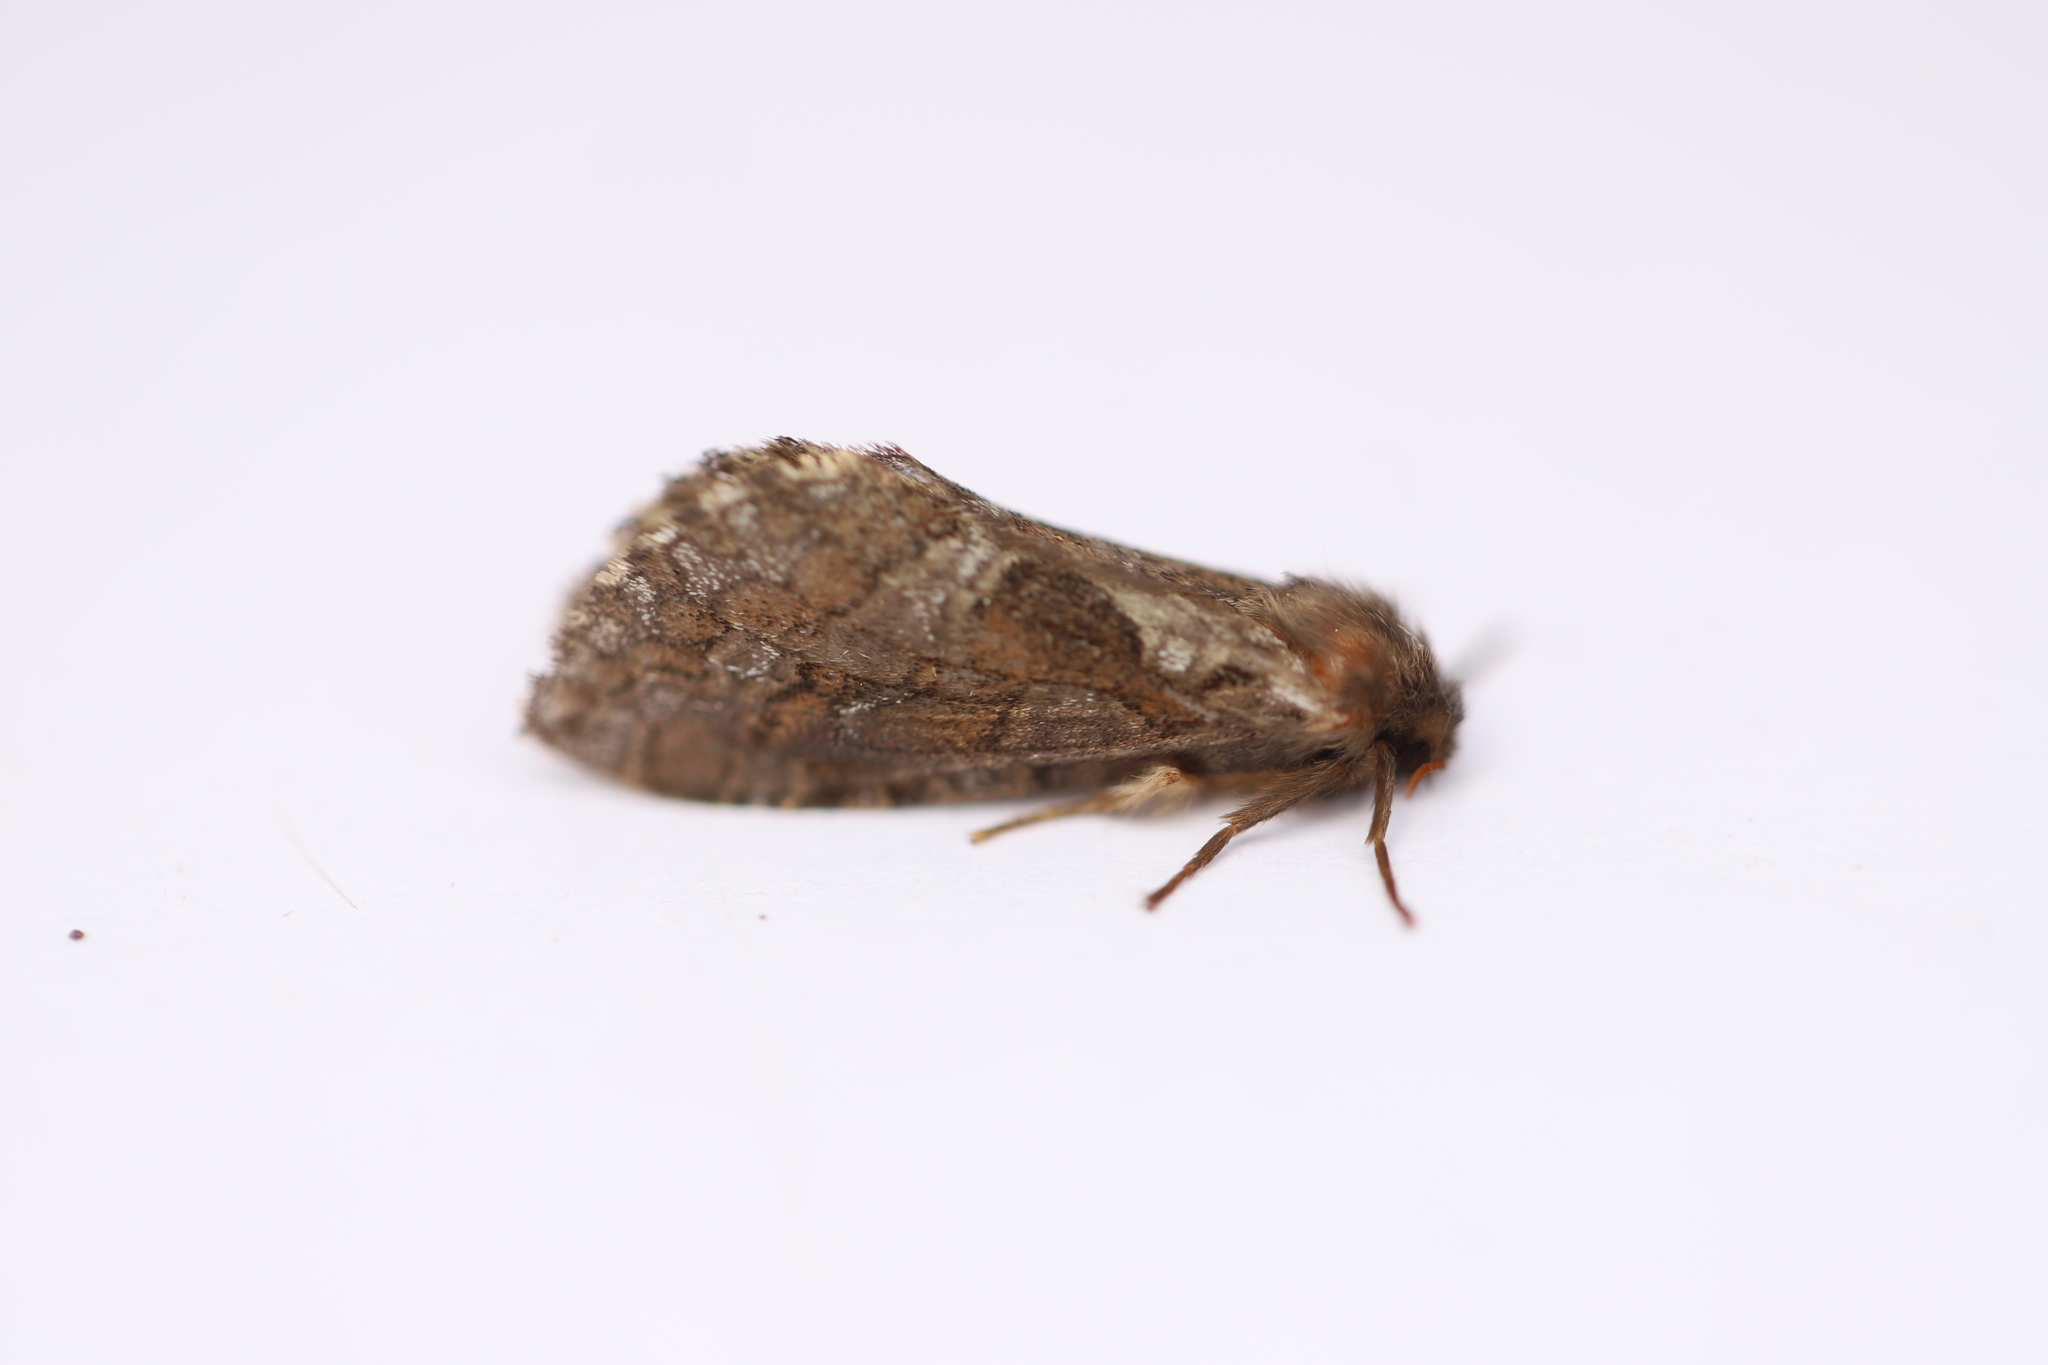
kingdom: Animalia
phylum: Arthropoda
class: Insecta
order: Lepidoptera
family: Hepialidae
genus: Korscheltellus
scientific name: Korscheltellus gracilis
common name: Conifer swift moth
